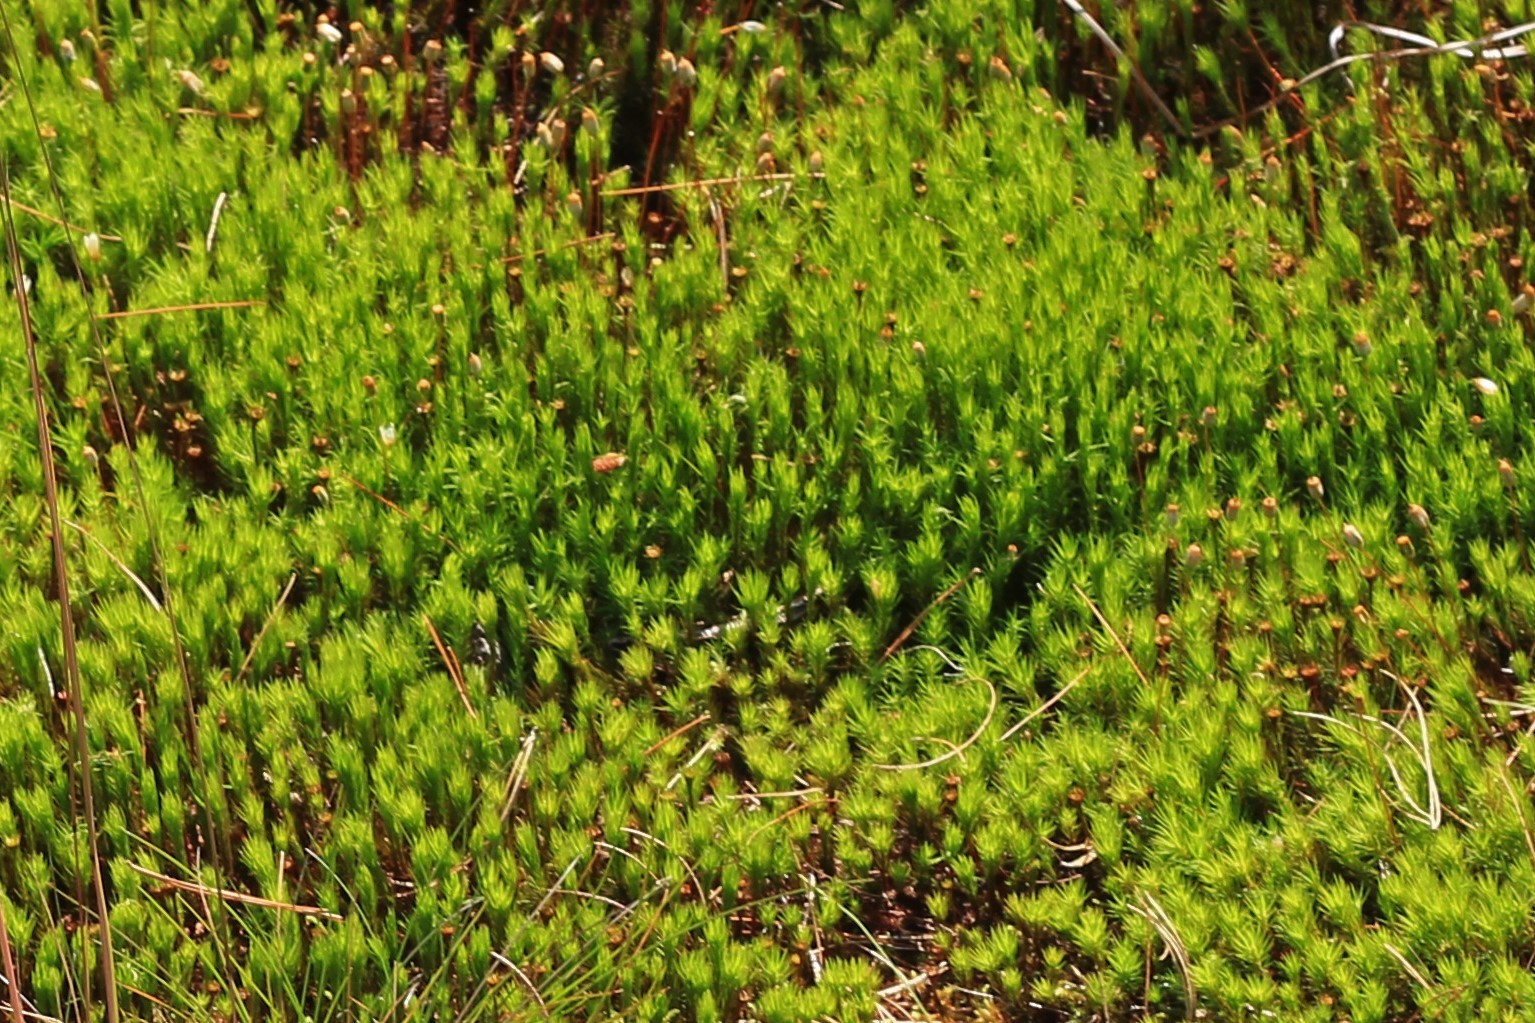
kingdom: Plantae
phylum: Bryophyta
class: Polytrichopsida
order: Polytrichales
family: Polytrichaceae
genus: Polytrichum
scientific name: Polytrichum commune
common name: Common haircap
